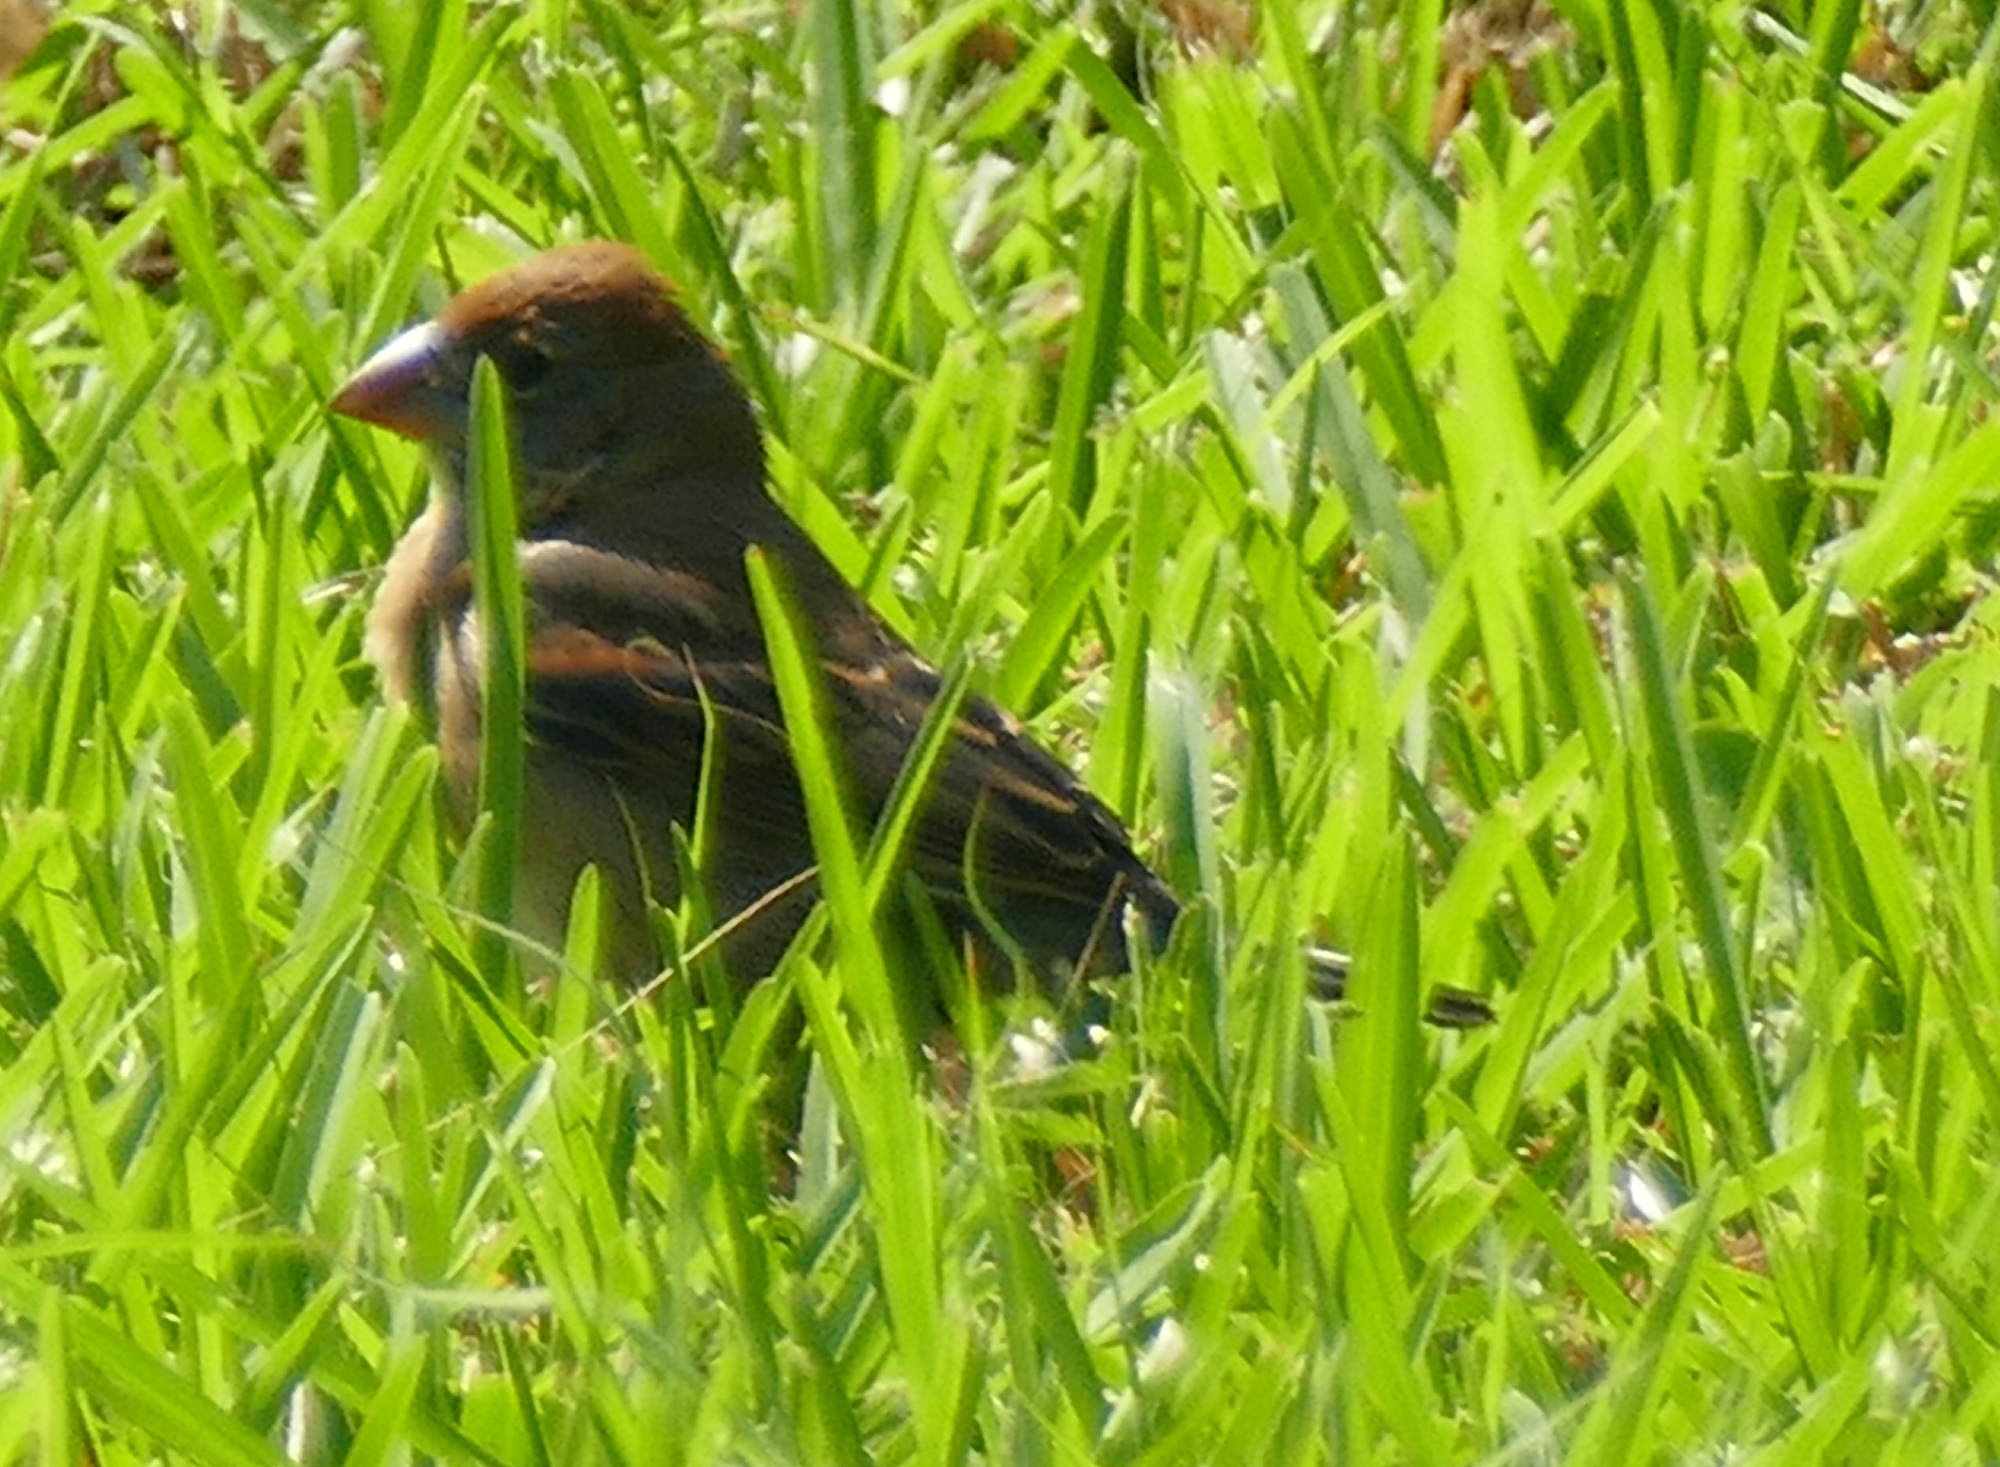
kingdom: Animalia
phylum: Chordata
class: Aves
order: Passeriformes
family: Cardinalidae
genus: Passerina
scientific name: Passerina caerulea
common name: Blue grosbeak
